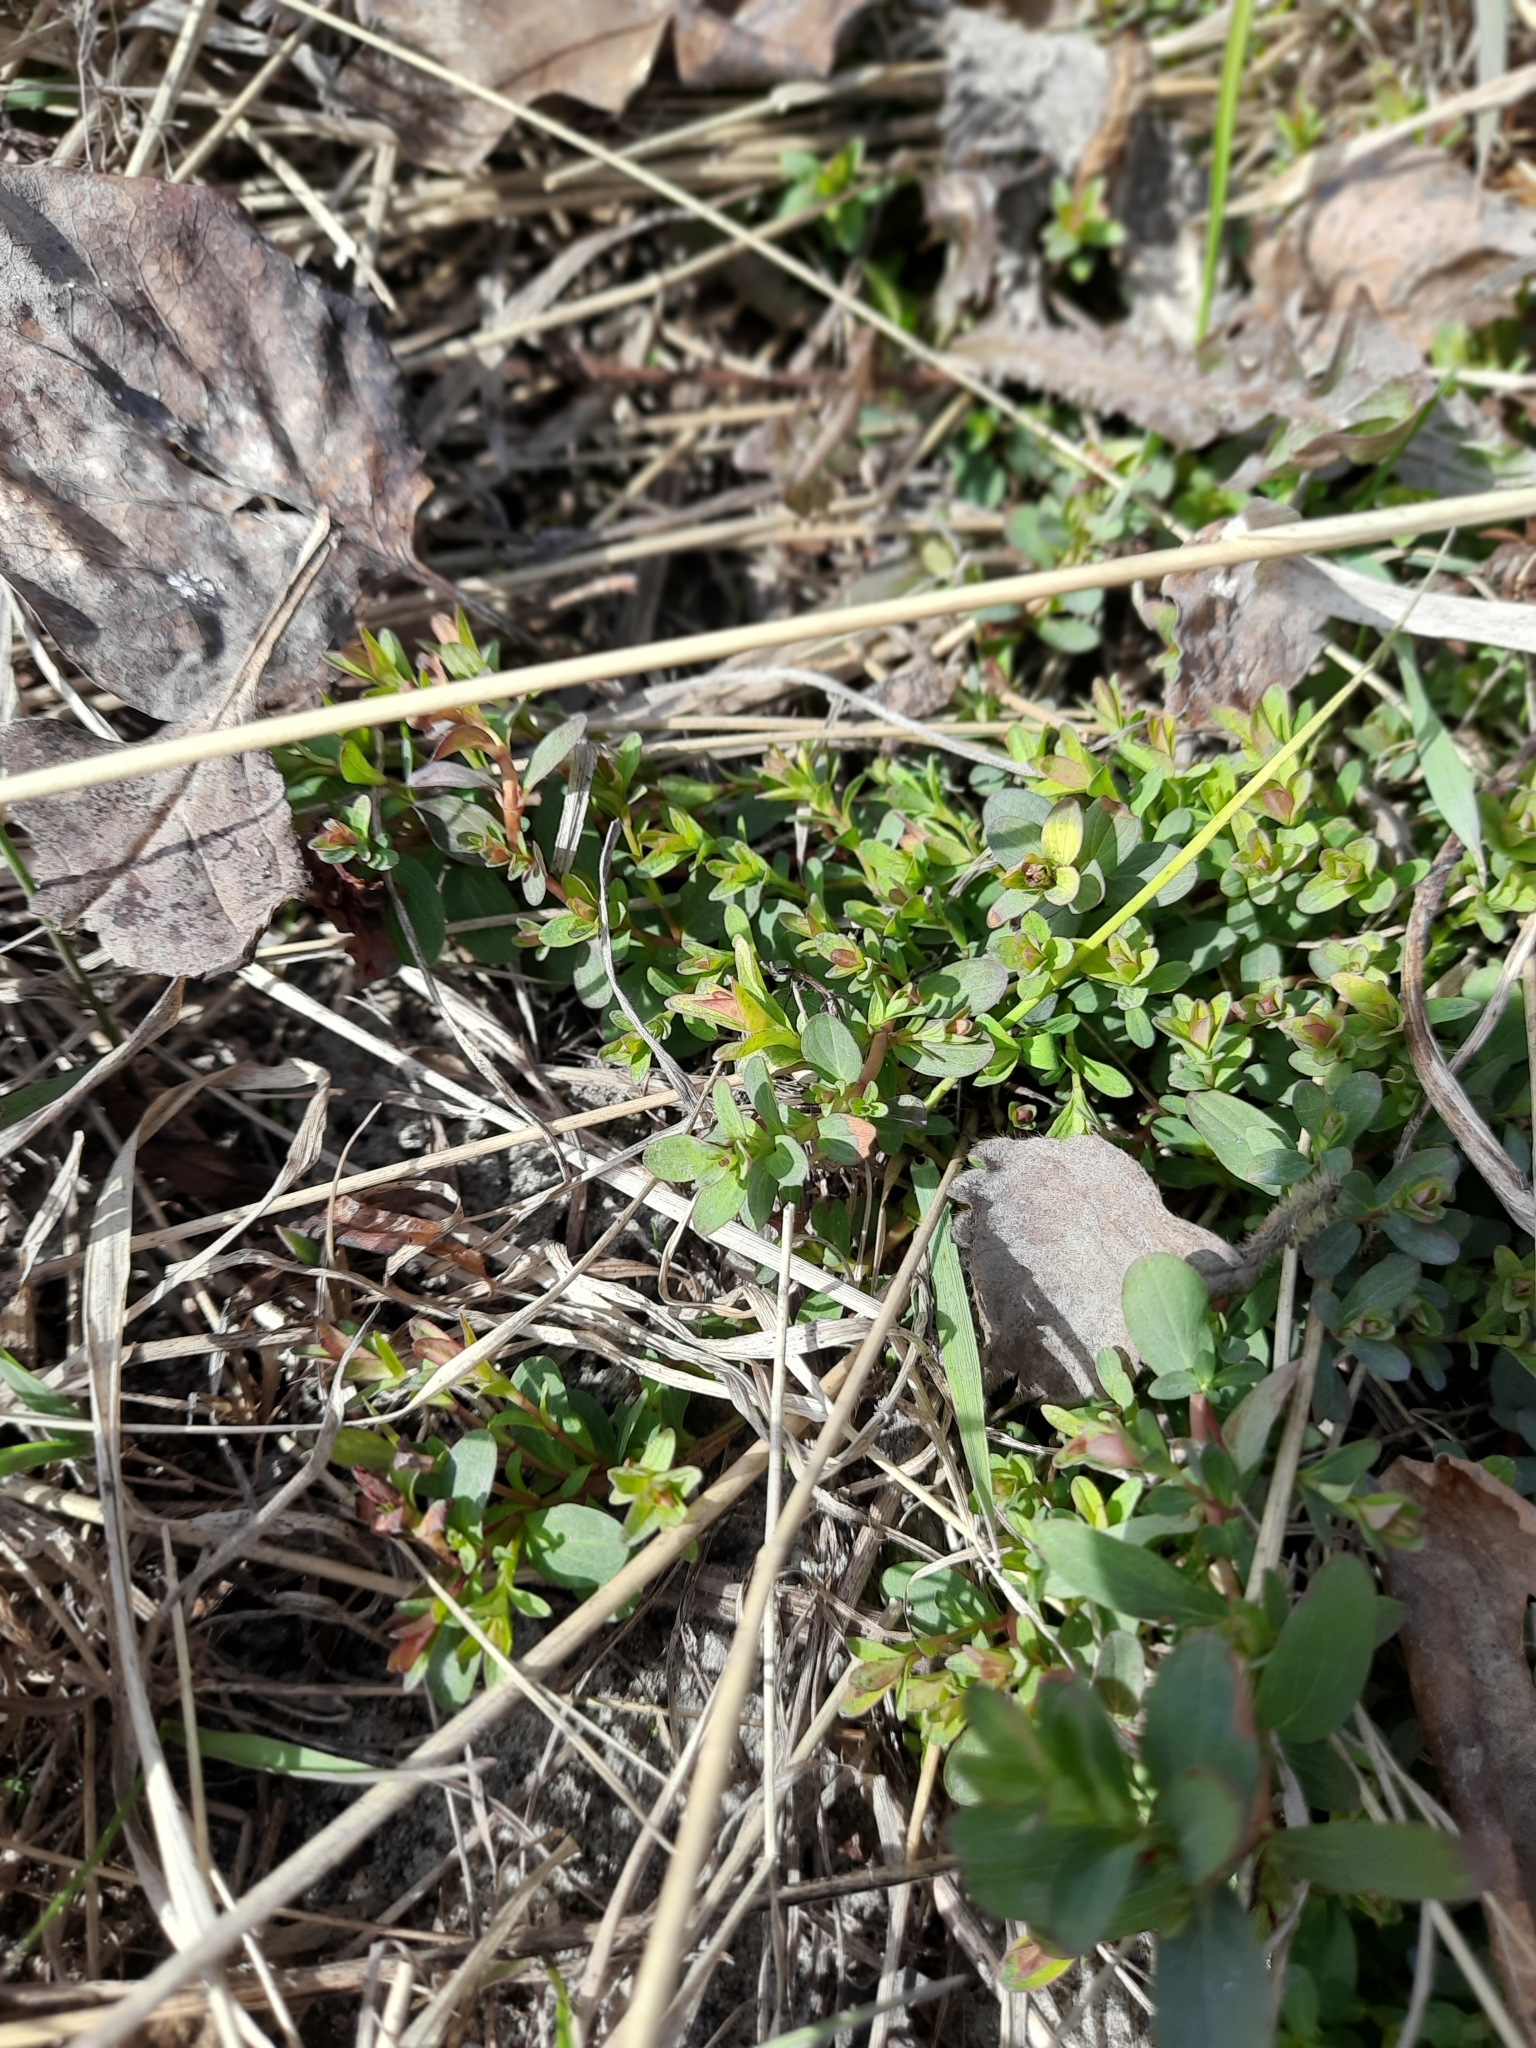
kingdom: Plantae
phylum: Tracheophyta
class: Magnoliopsida
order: Malpighiales
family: Hypericaceae
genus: Hypericum
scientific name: Hypericum perforatum
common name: Common st. johnswort
